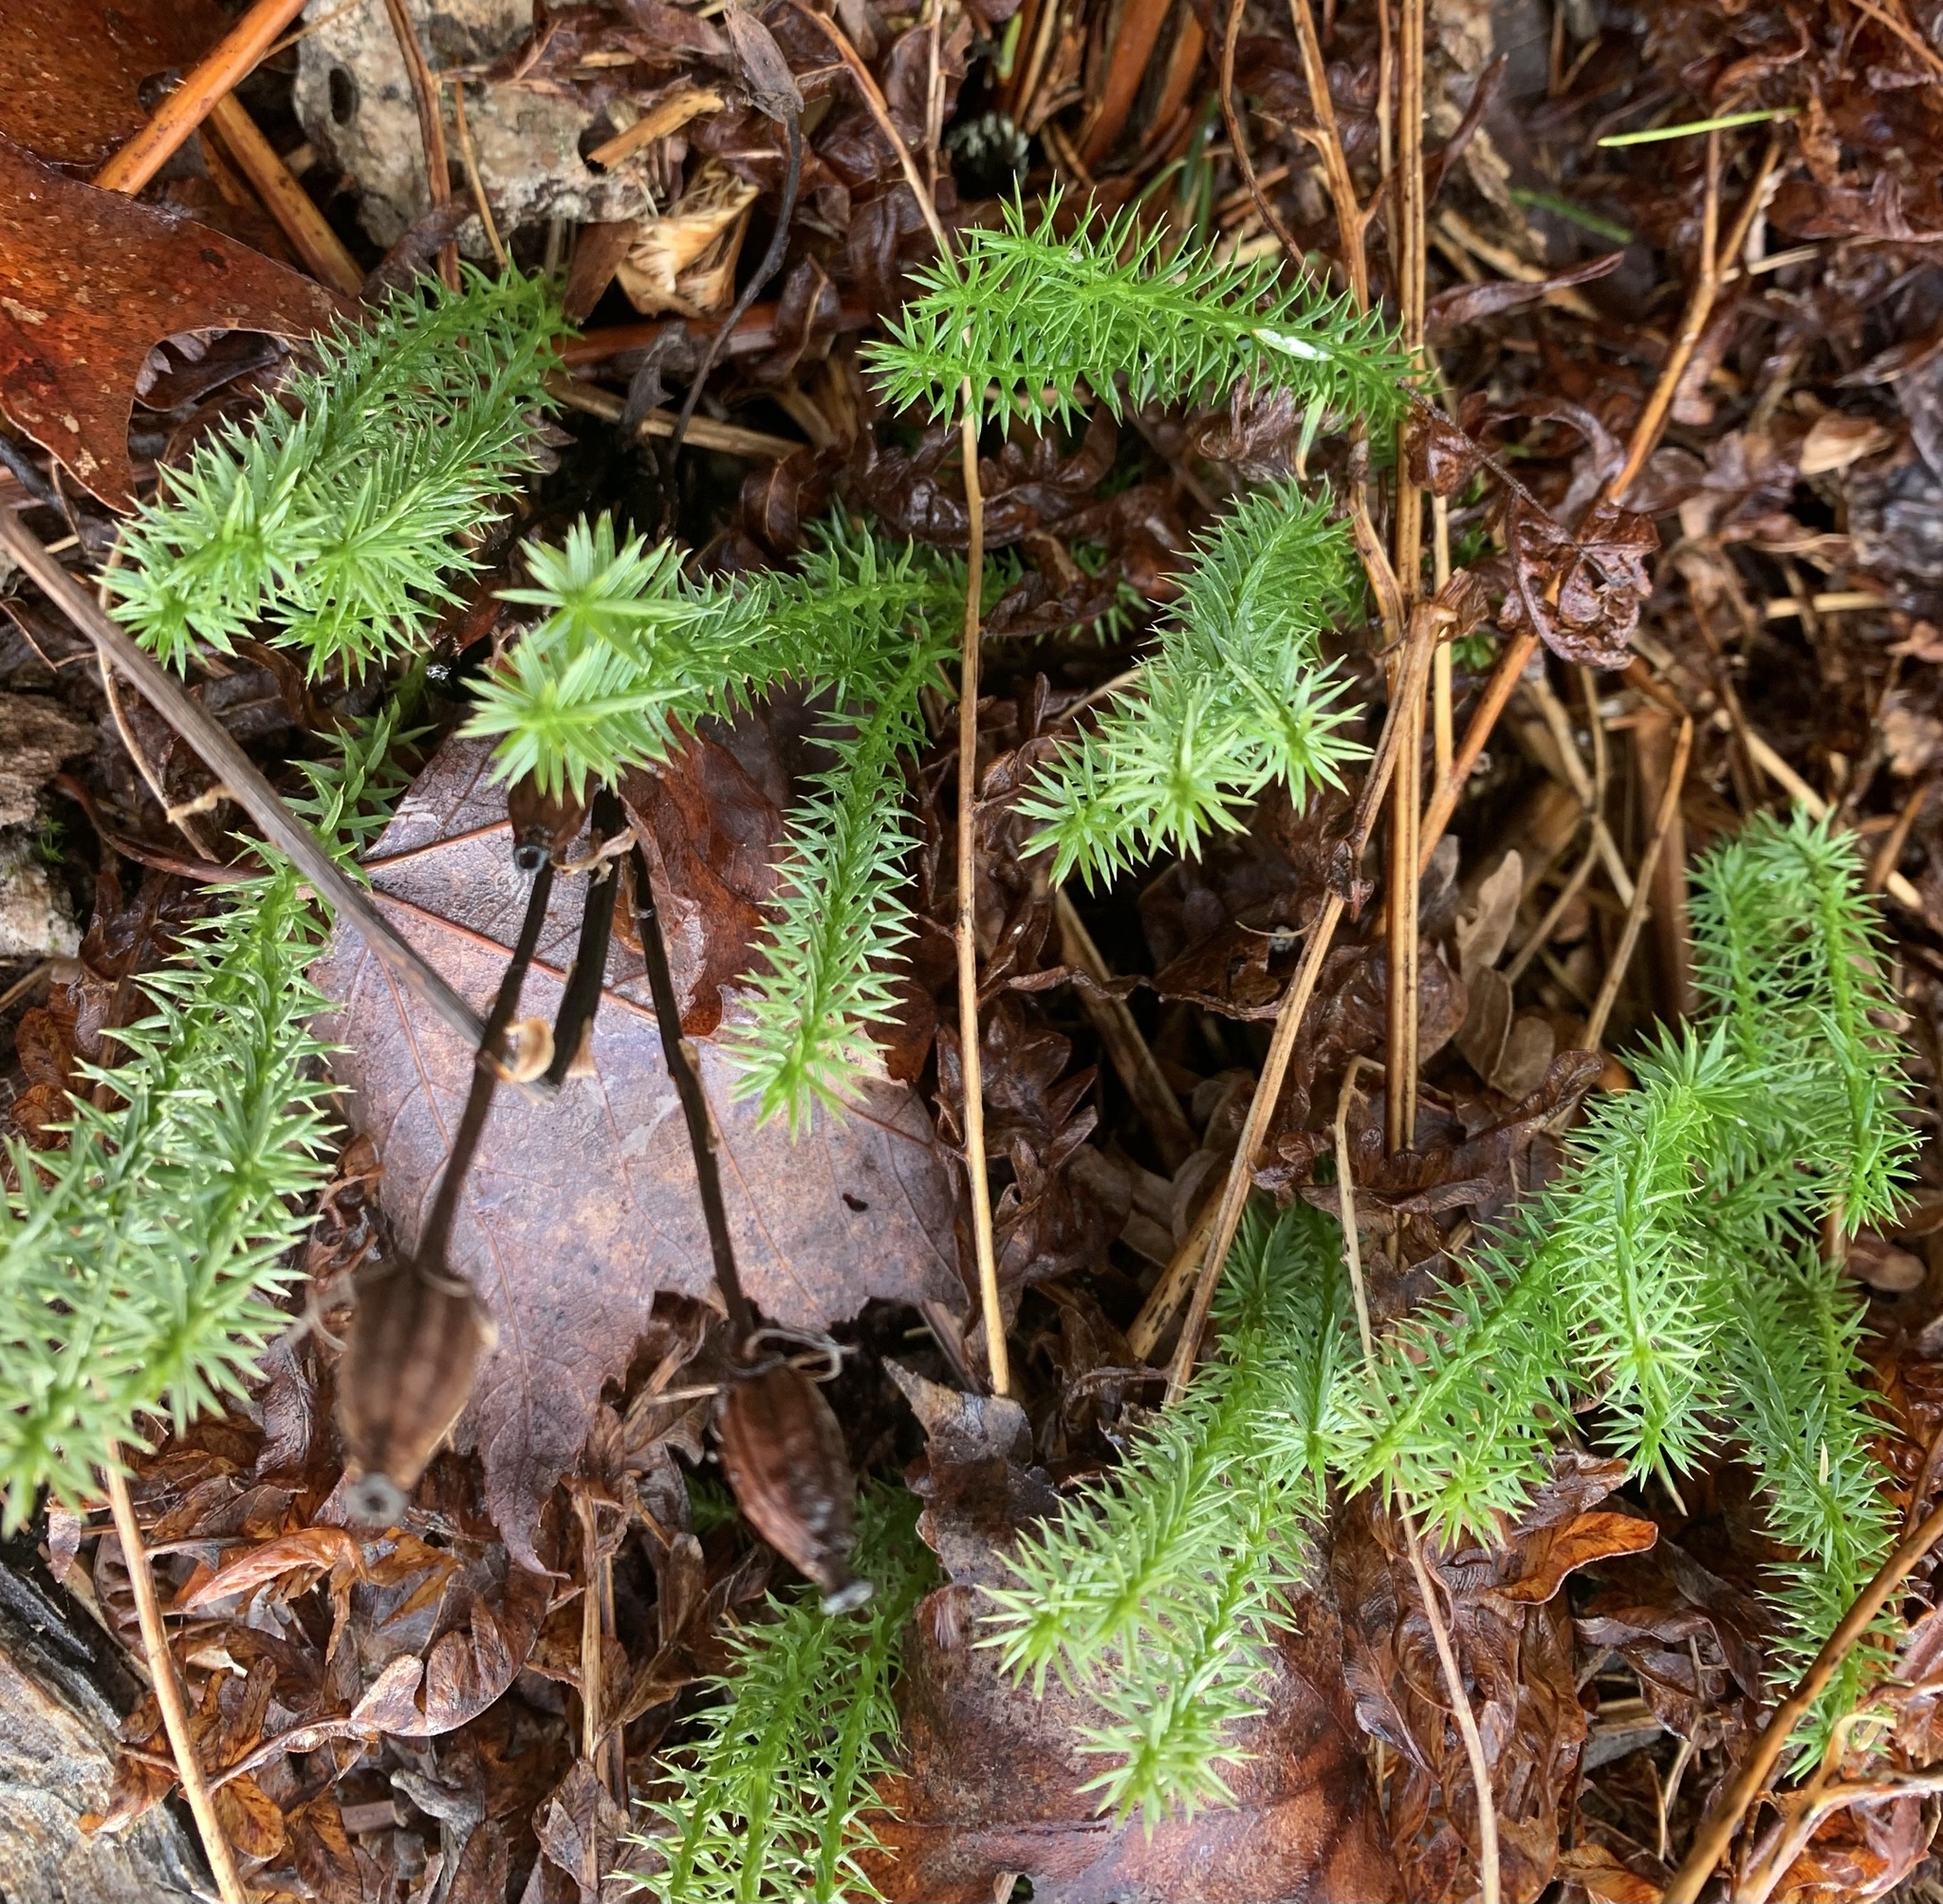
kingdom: Plantae
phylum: Tracheophyta
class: Lycopodiopsida
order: Lycopodiales
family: Lycopodiaceae
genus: Spinulum
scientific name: Spinulum annotinum
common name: Interrupted club-moss
